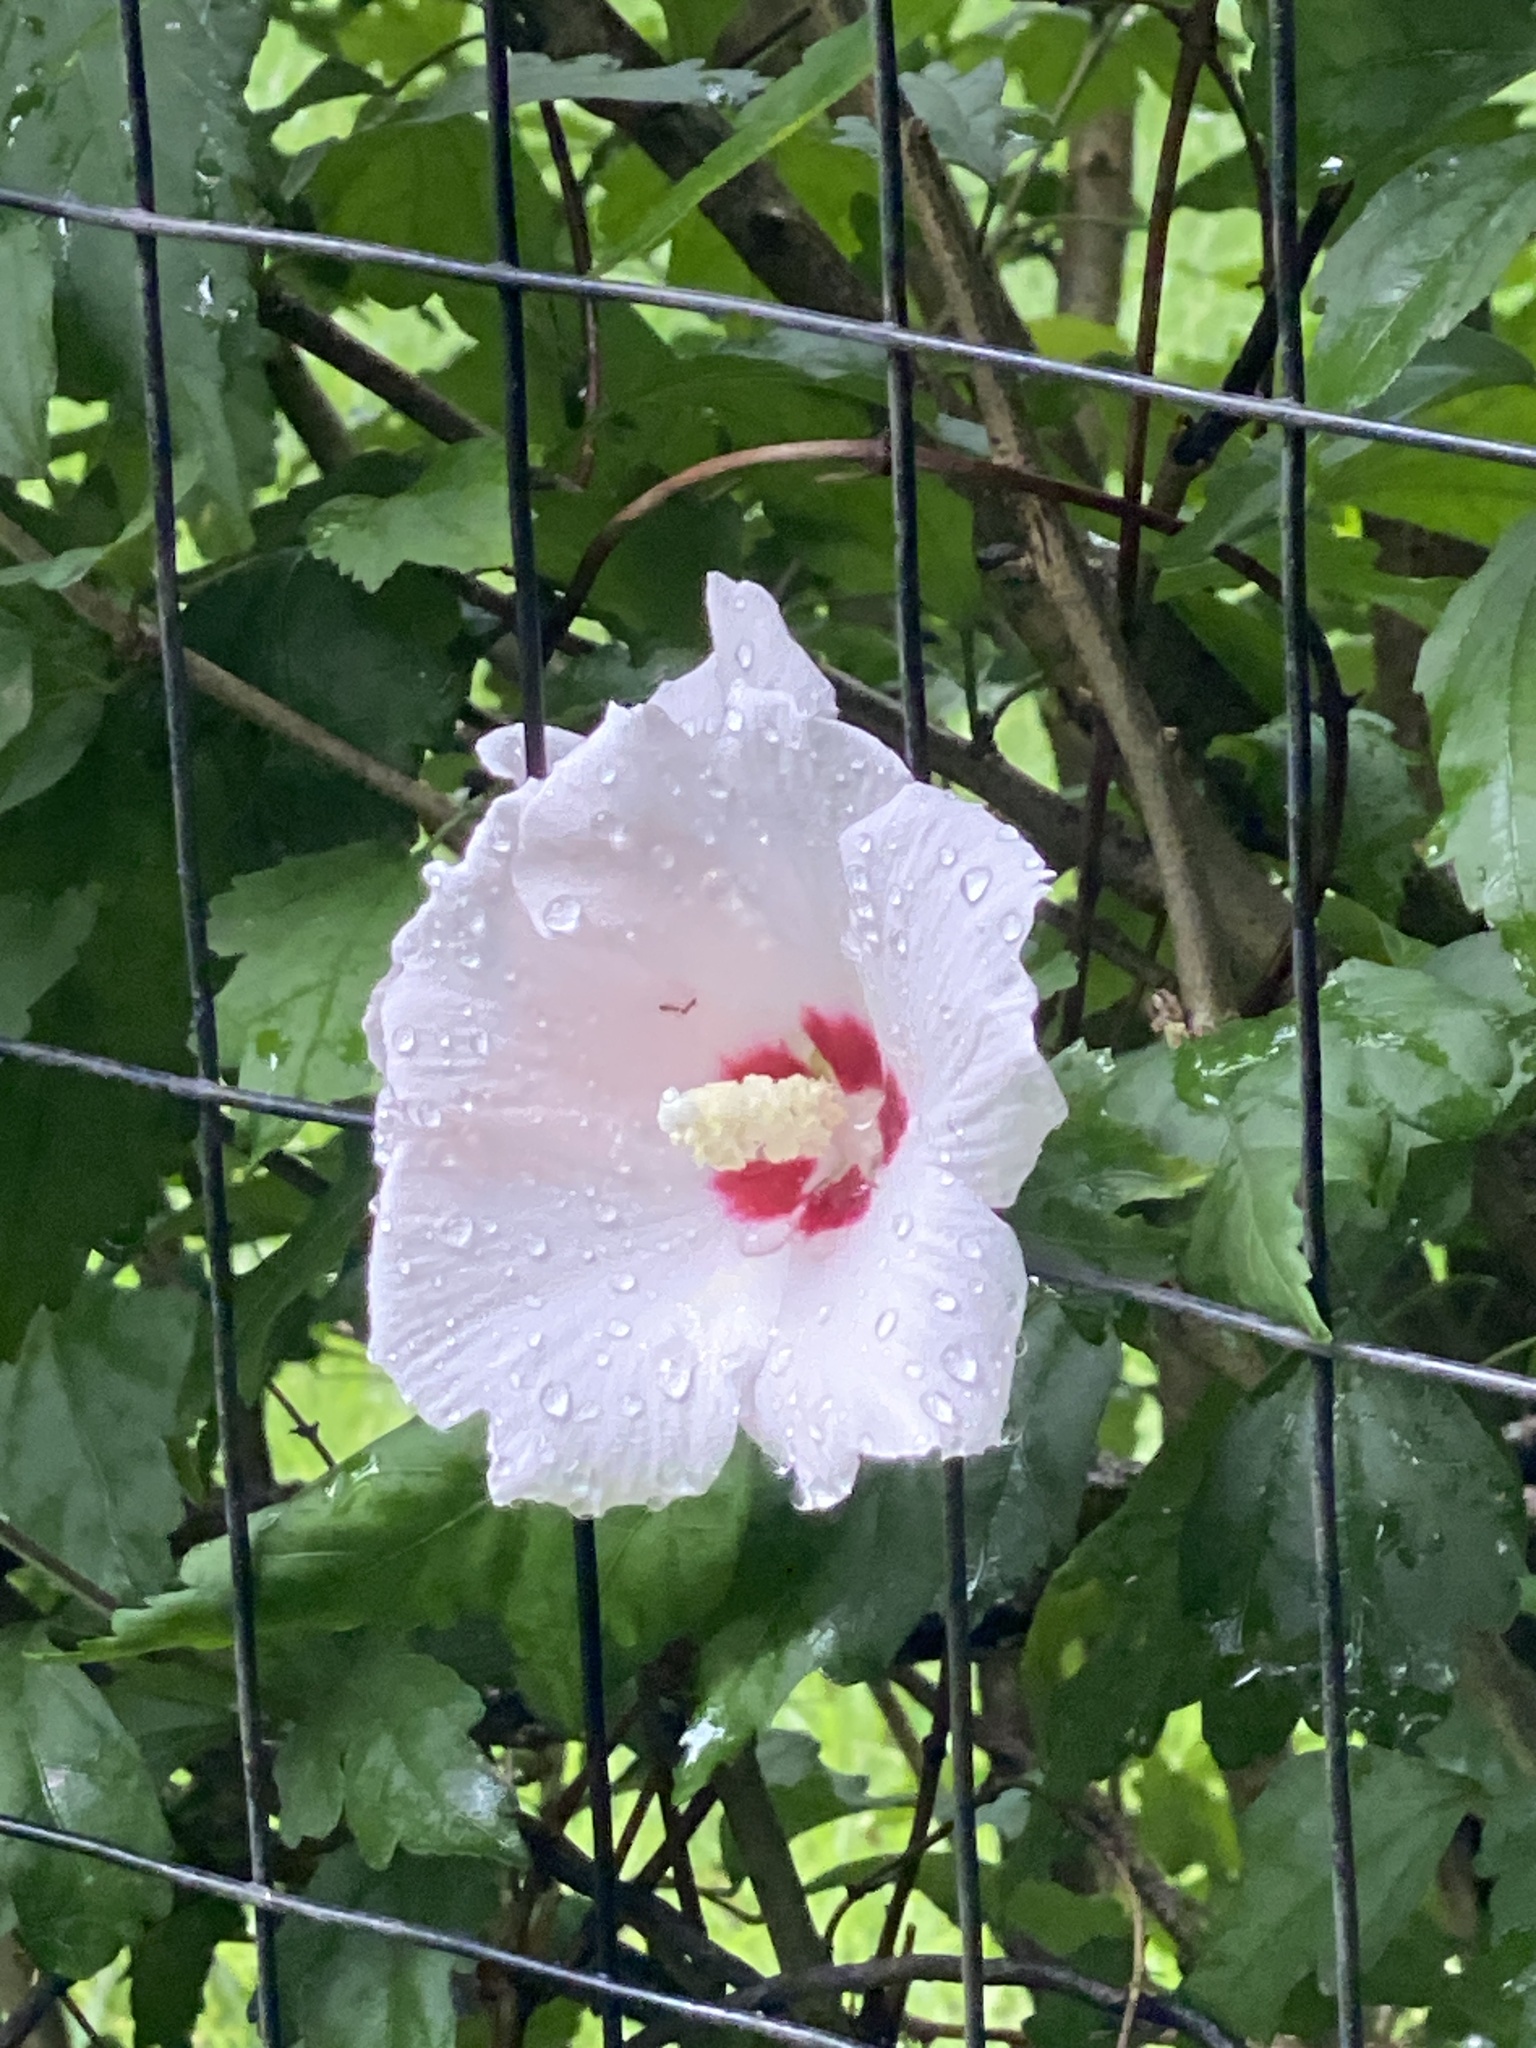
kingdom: Plantae
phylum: Tracheophyta
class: Magnoliopsida
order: Malvales
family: Malvaceae
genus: Hibiscus
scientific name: Hibiscus syriacus
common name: Syrian ketmia
